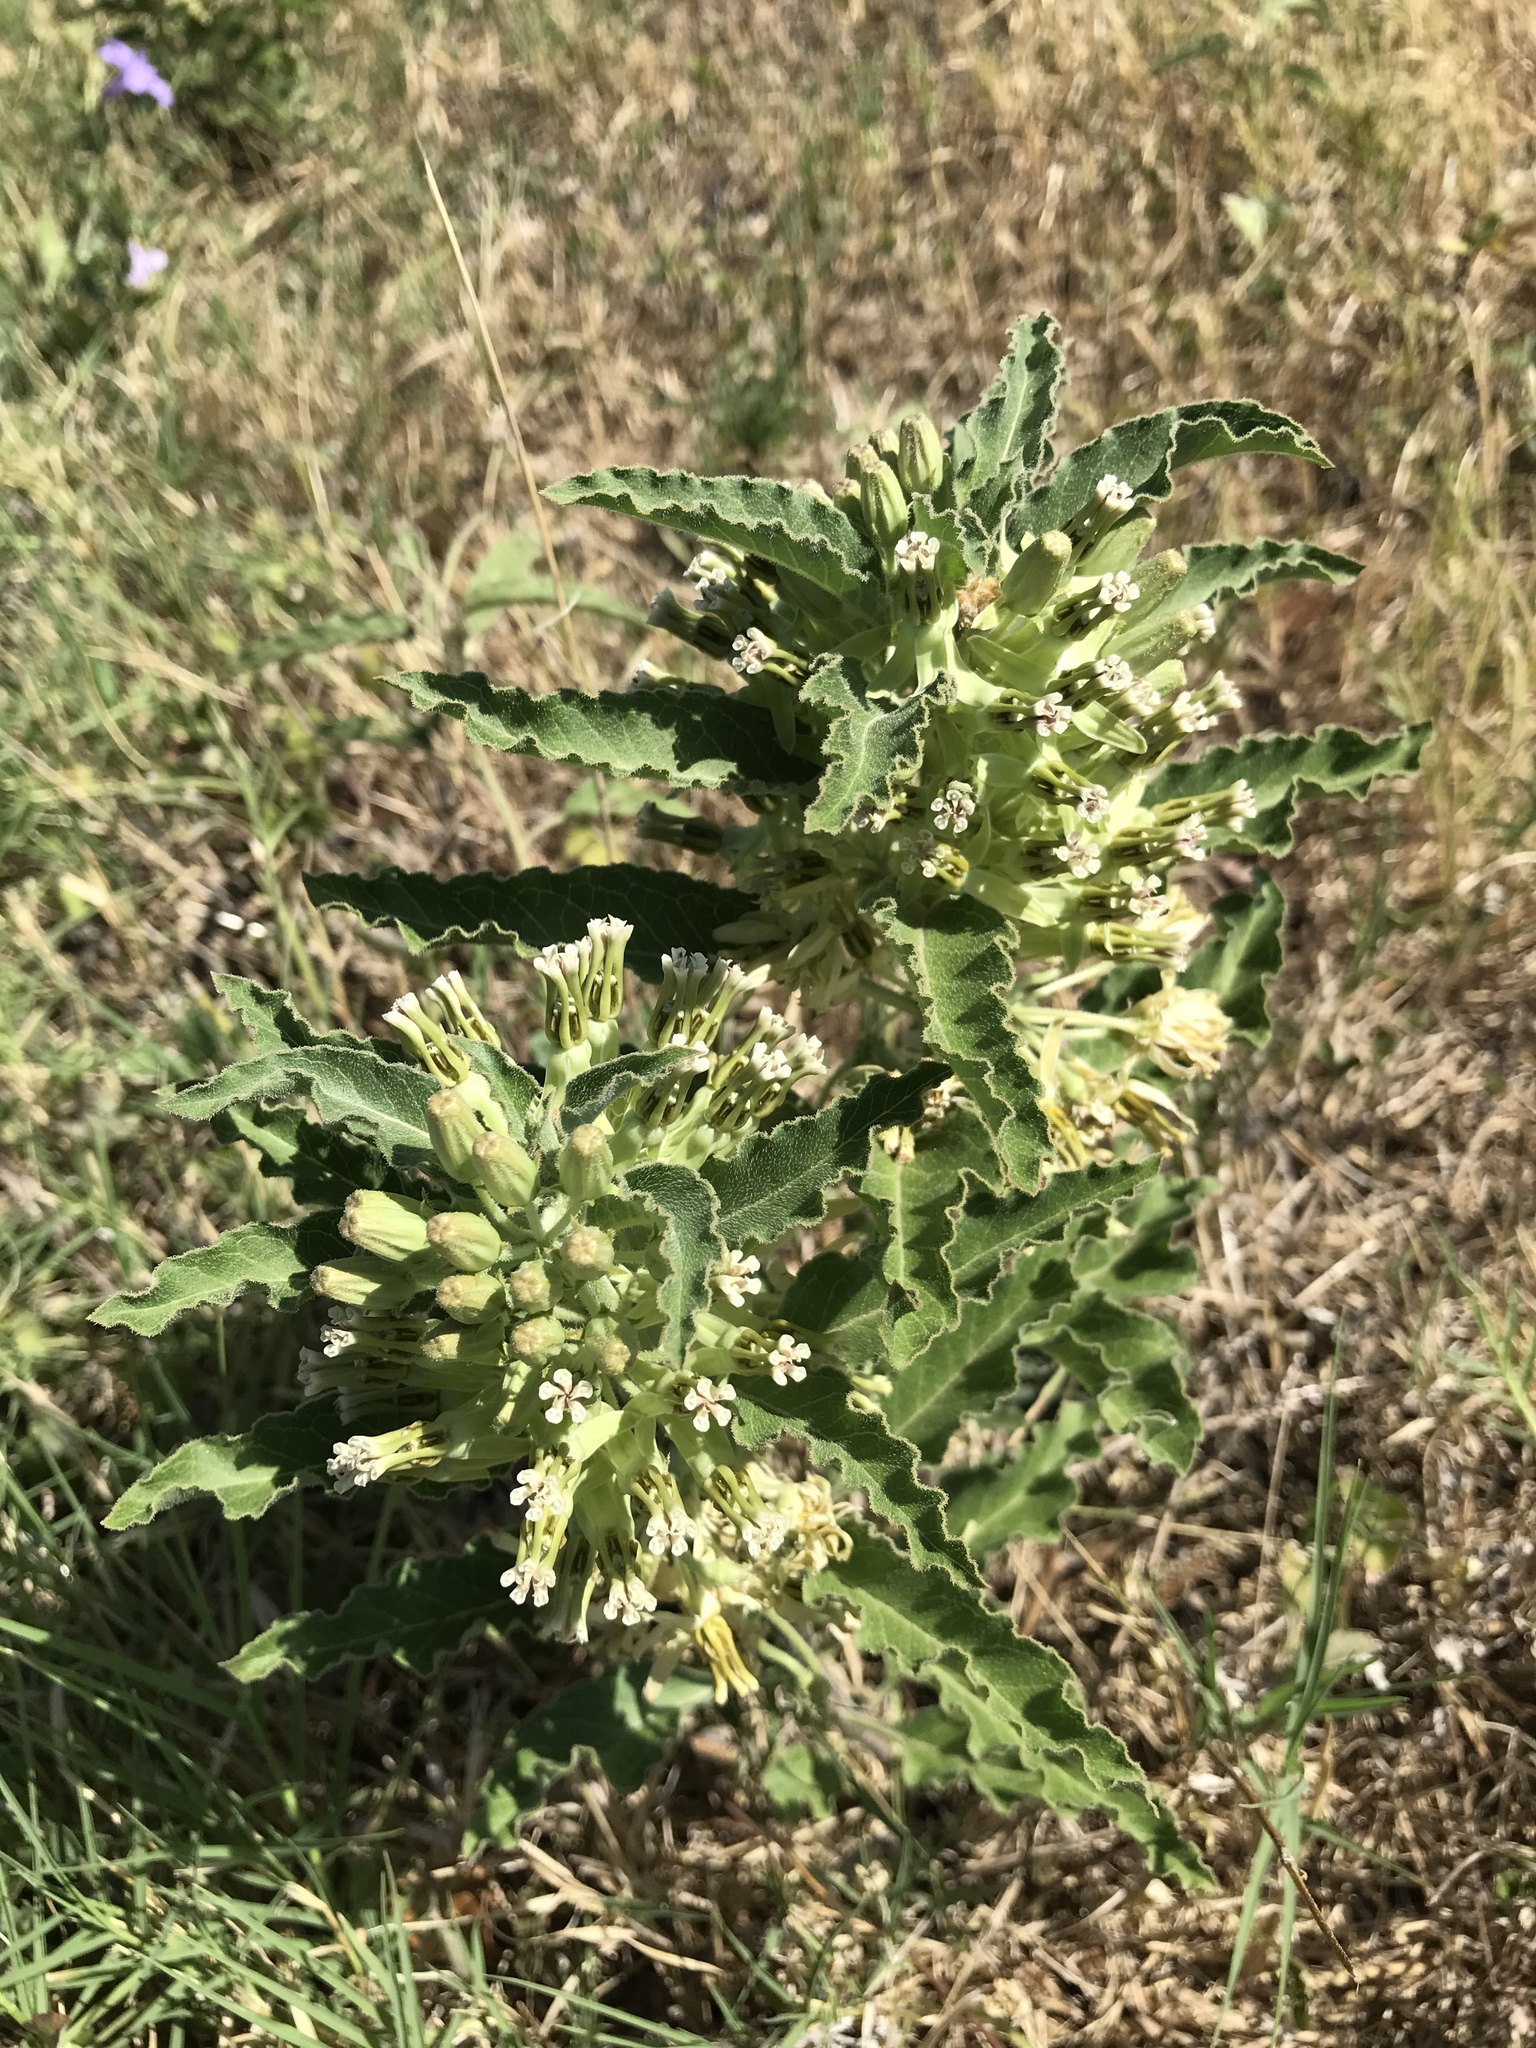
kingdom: Plantae
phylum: Tracheophyta
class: Magnoliopsida
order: Gentianales
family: Apocynaceae
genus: Asclepias
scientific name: Asclepias oenotheroides
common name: Zizotes milkweed
